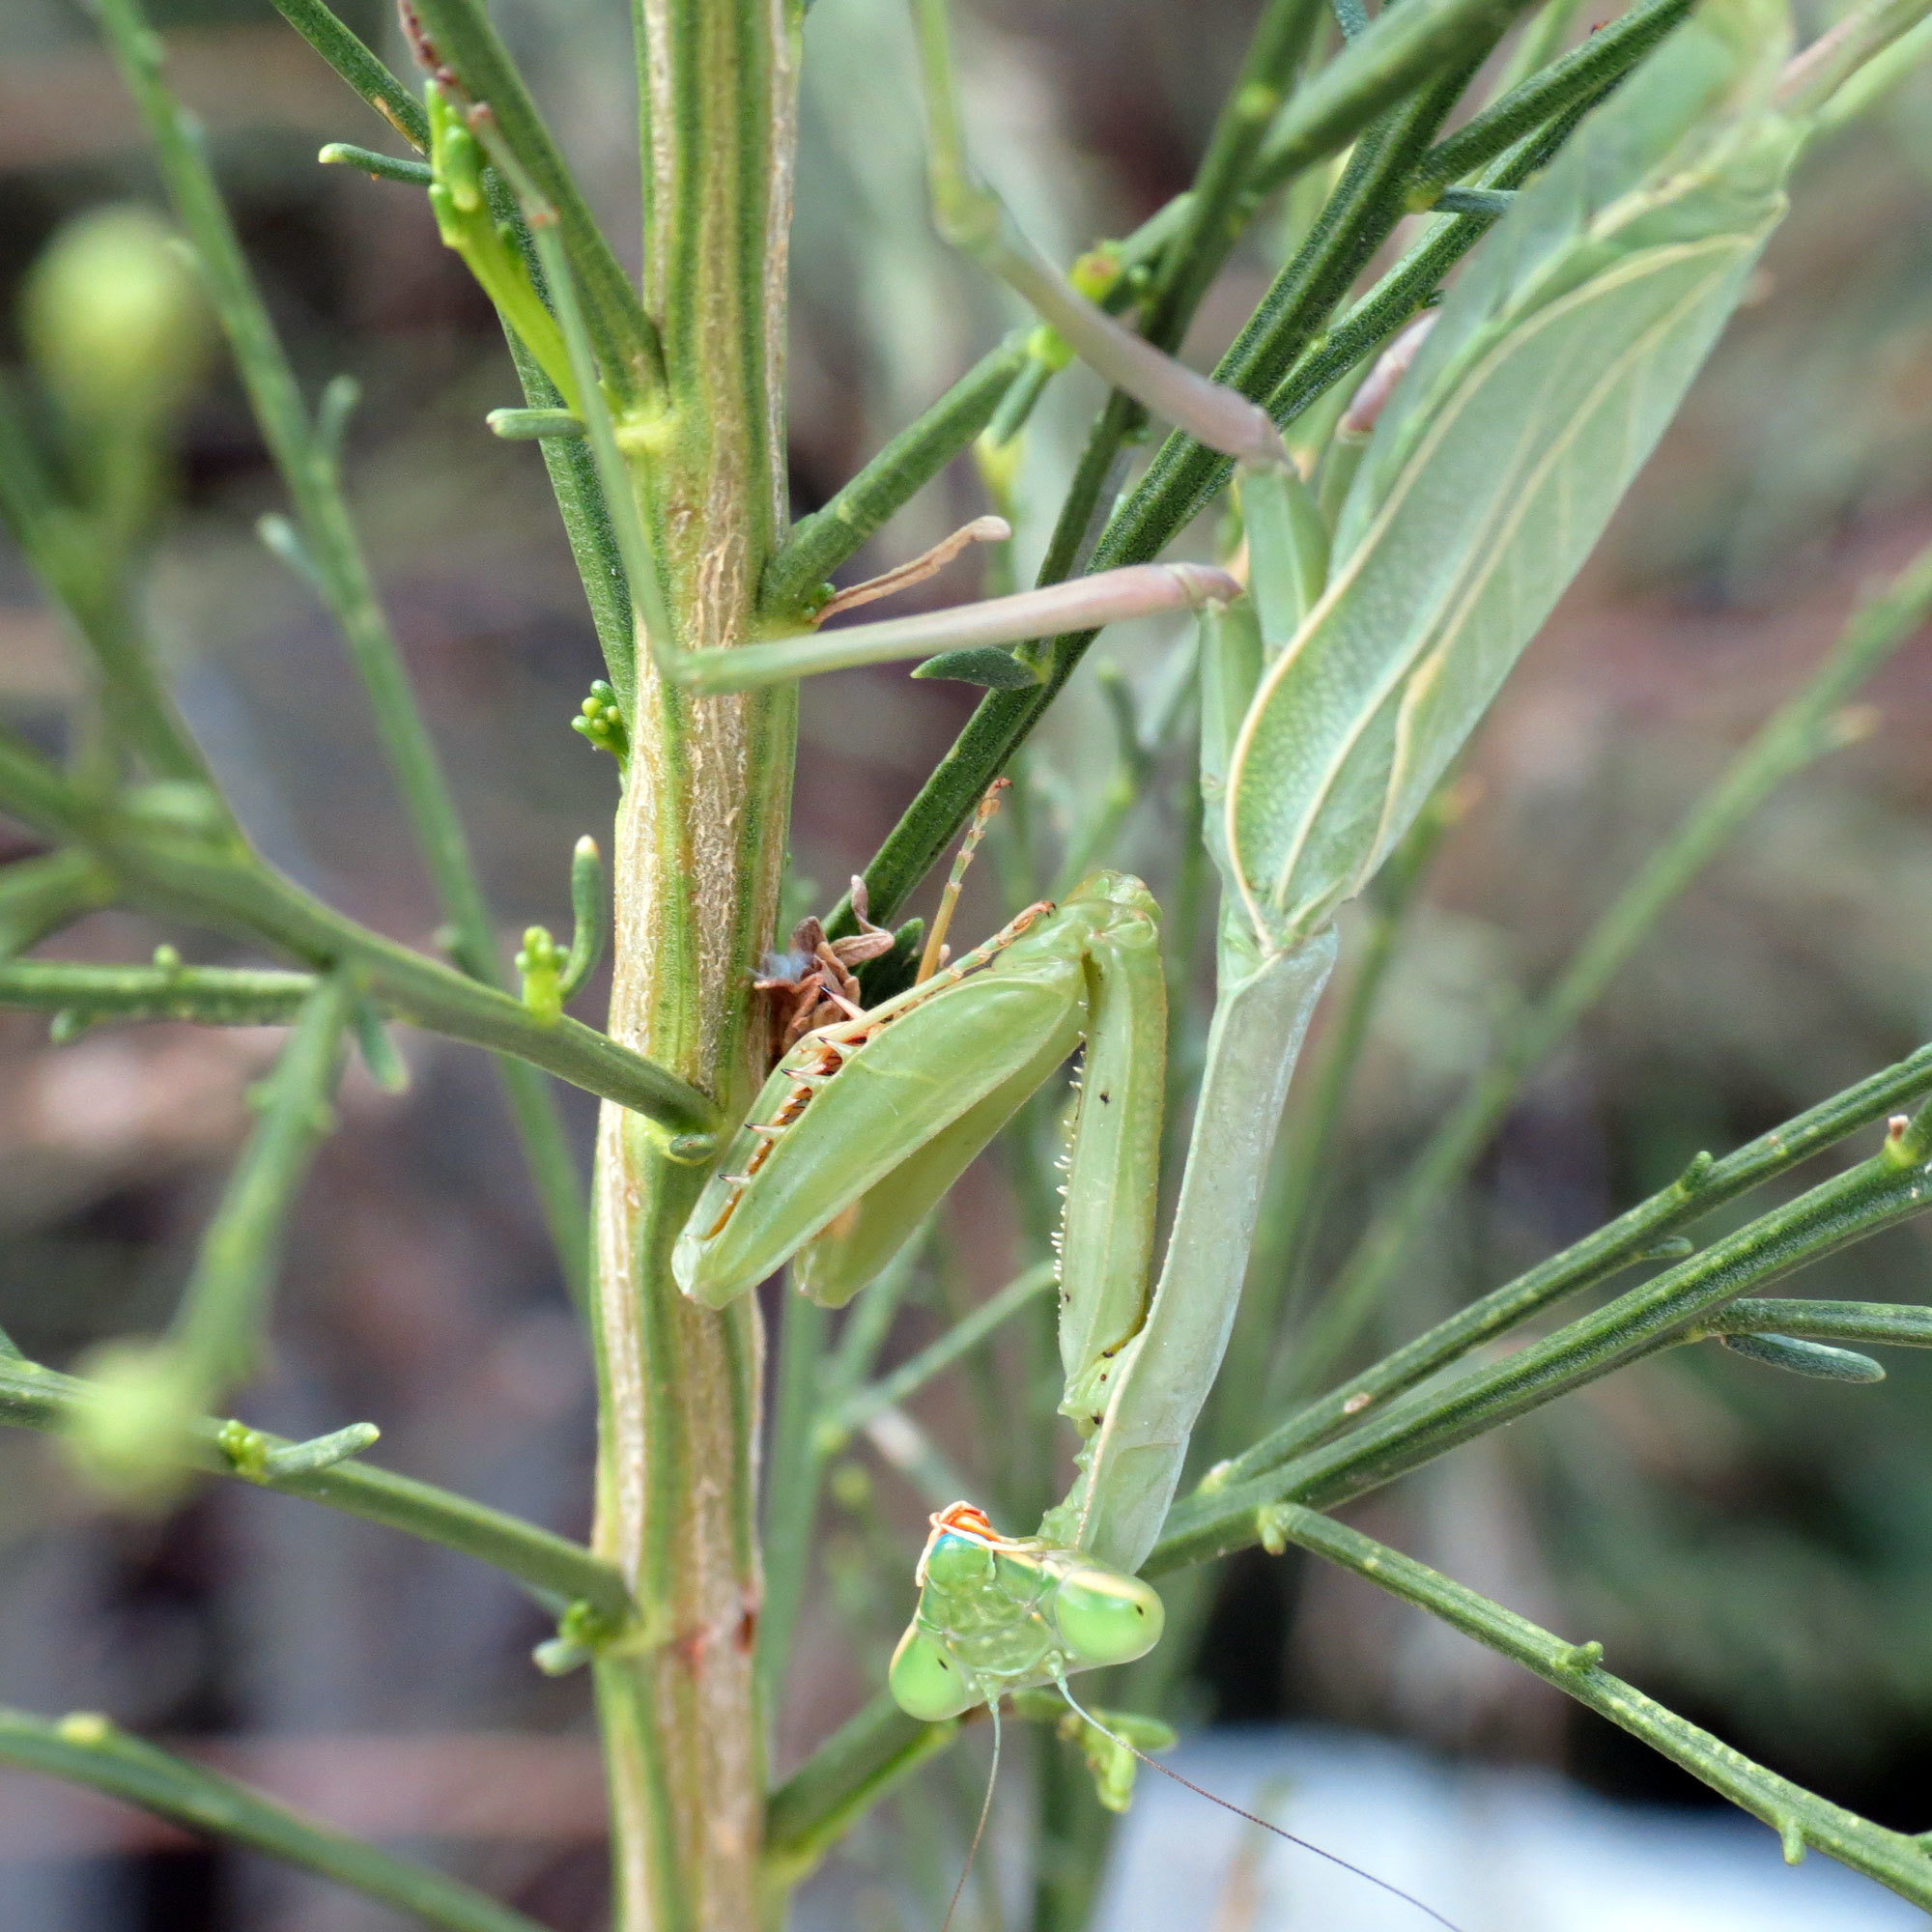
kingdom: Animalia
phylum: Arthropoda
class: Insecta
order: Mantodea
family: Mantidae
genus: Stagmomantis
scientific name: Stagmomantis limbata
